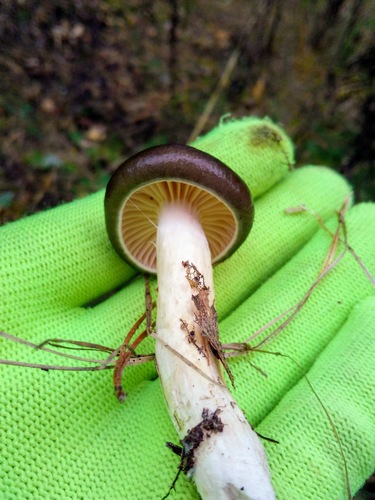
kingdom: Fungi
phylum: Basidiomycota
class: Agaricomycetes
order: Agaricales
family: Hygrophoraceae
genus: Hygrophorus
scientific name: Hygrophorus hypothejus
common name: Herald of winter
